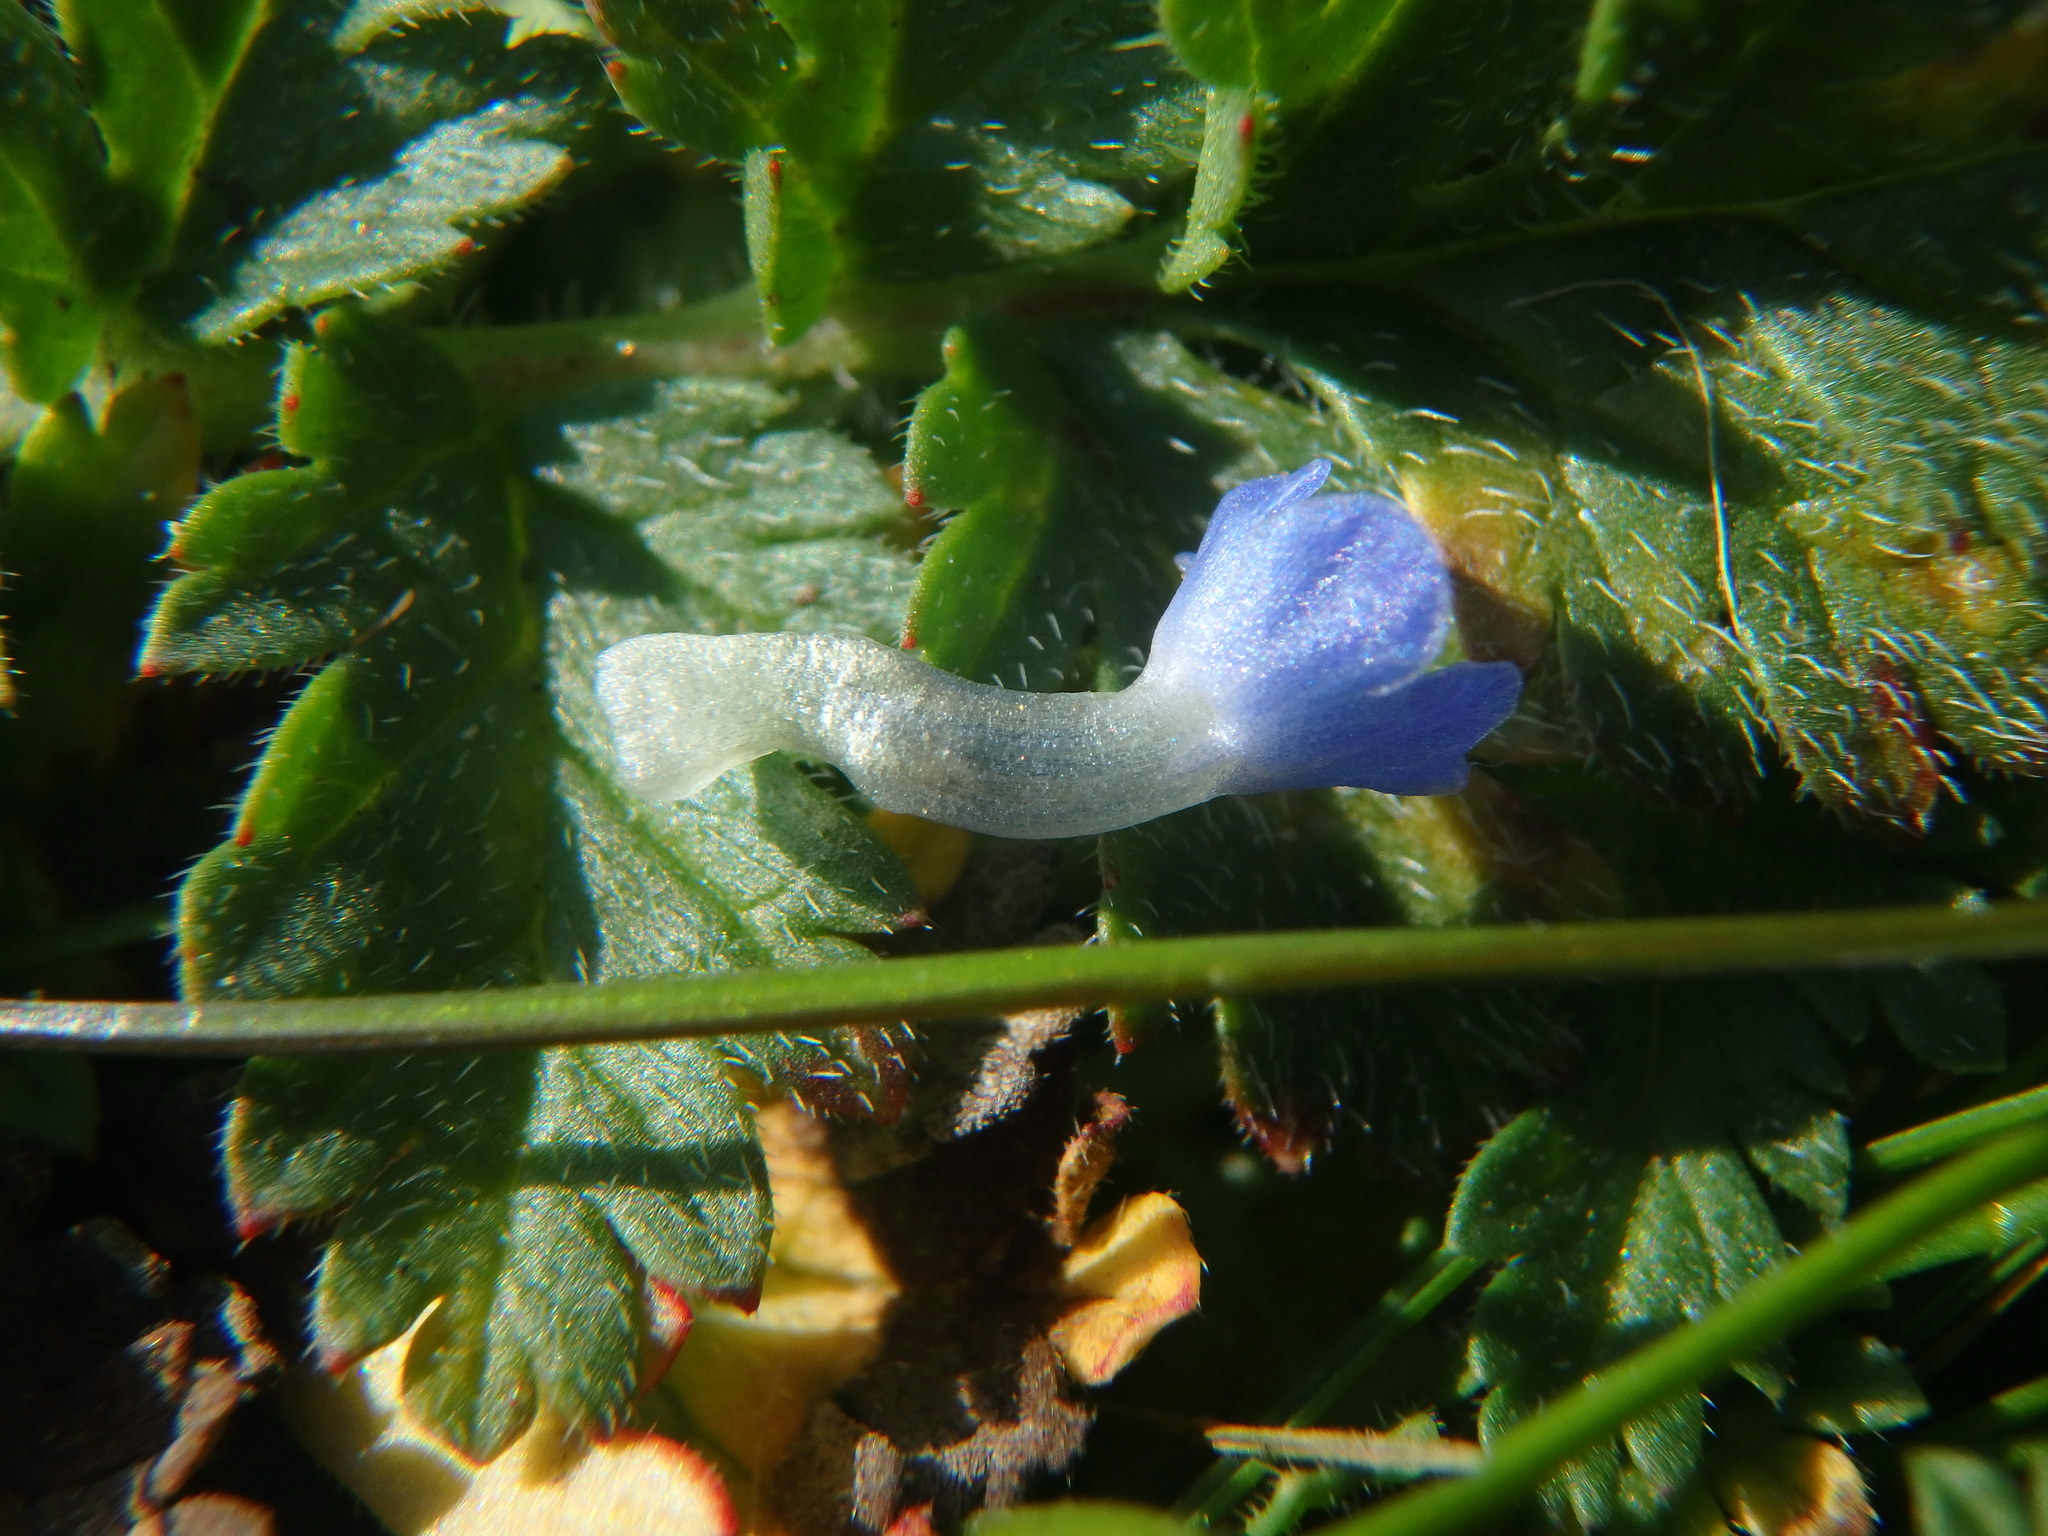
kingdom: Plantae
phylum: Tracheophyta
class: Magnoliopsida
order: Boraginales
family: Boraginaceae
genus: Lycopsis
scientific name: Lycopsis arvensis
